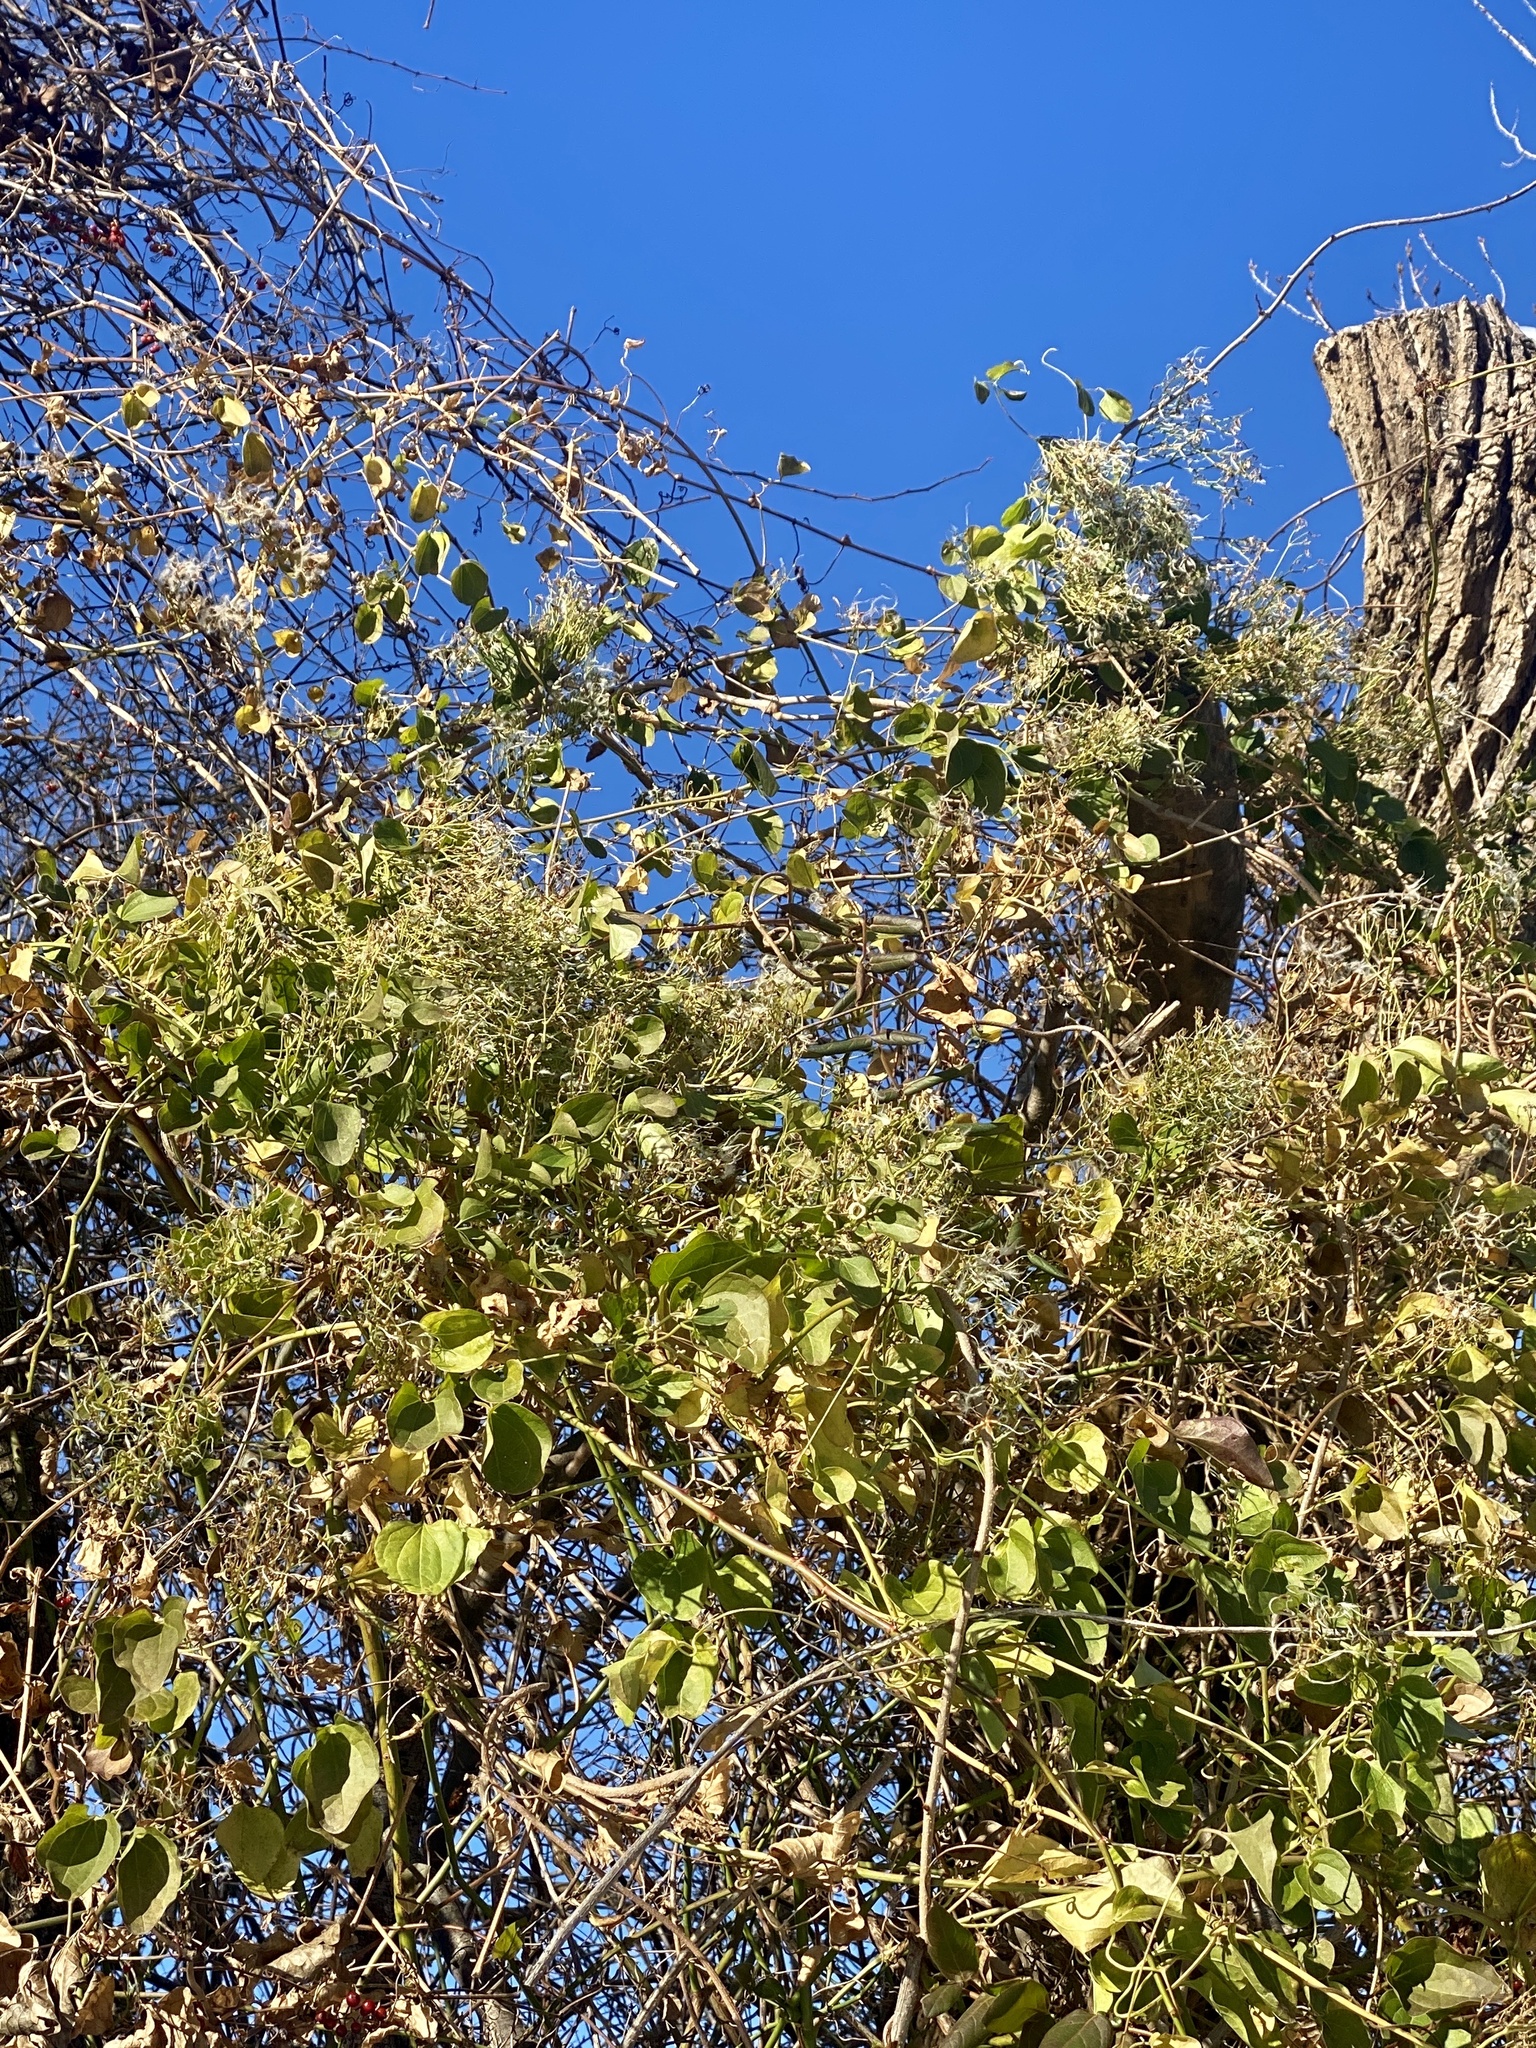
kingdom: Plantae
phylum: Tracheophyta
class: Magnoliopsida
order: Ranunculales
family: Ranunculaceae
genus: Clematis
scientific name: Clematis terniflora
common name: Sweet autumn clematis
